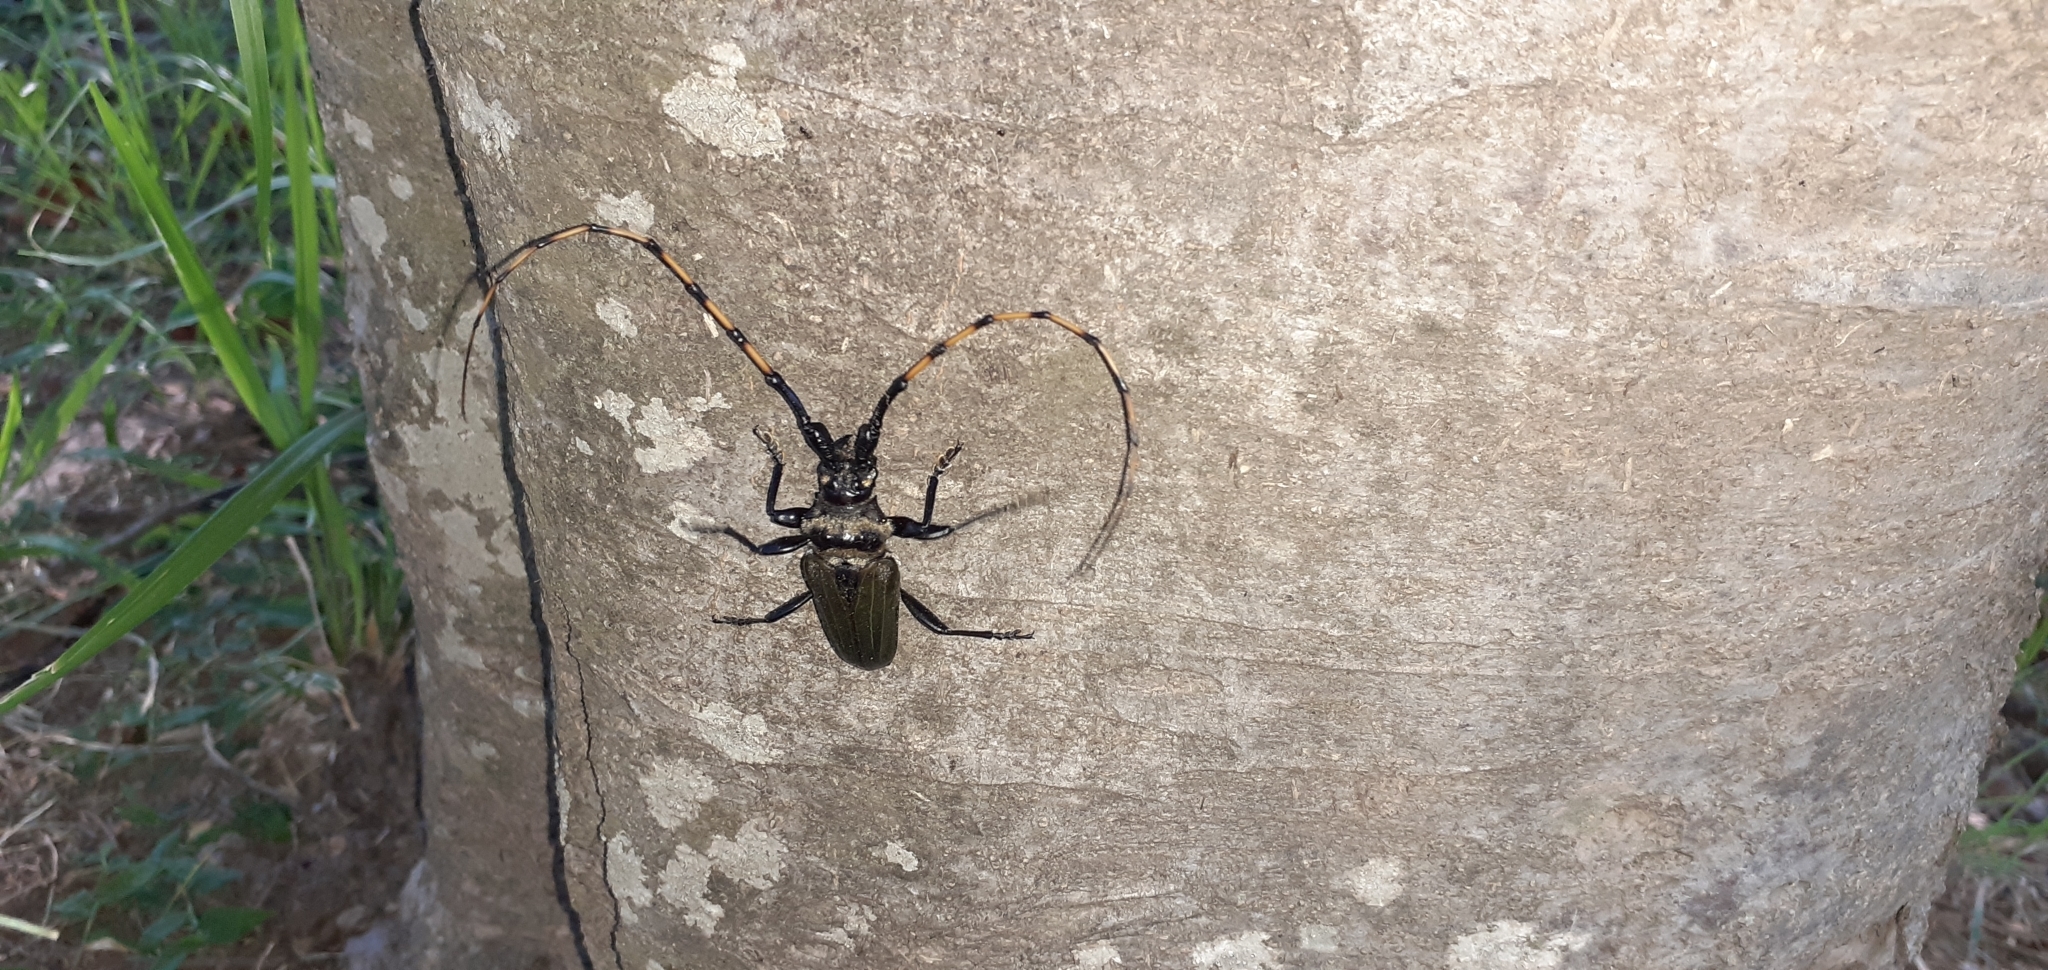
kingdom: Animalia
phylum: Arthropoda
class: Insecta
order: Coleoptera
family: Cerambycidae
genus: Retrachydes
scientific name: Retrachydes thoracicus
